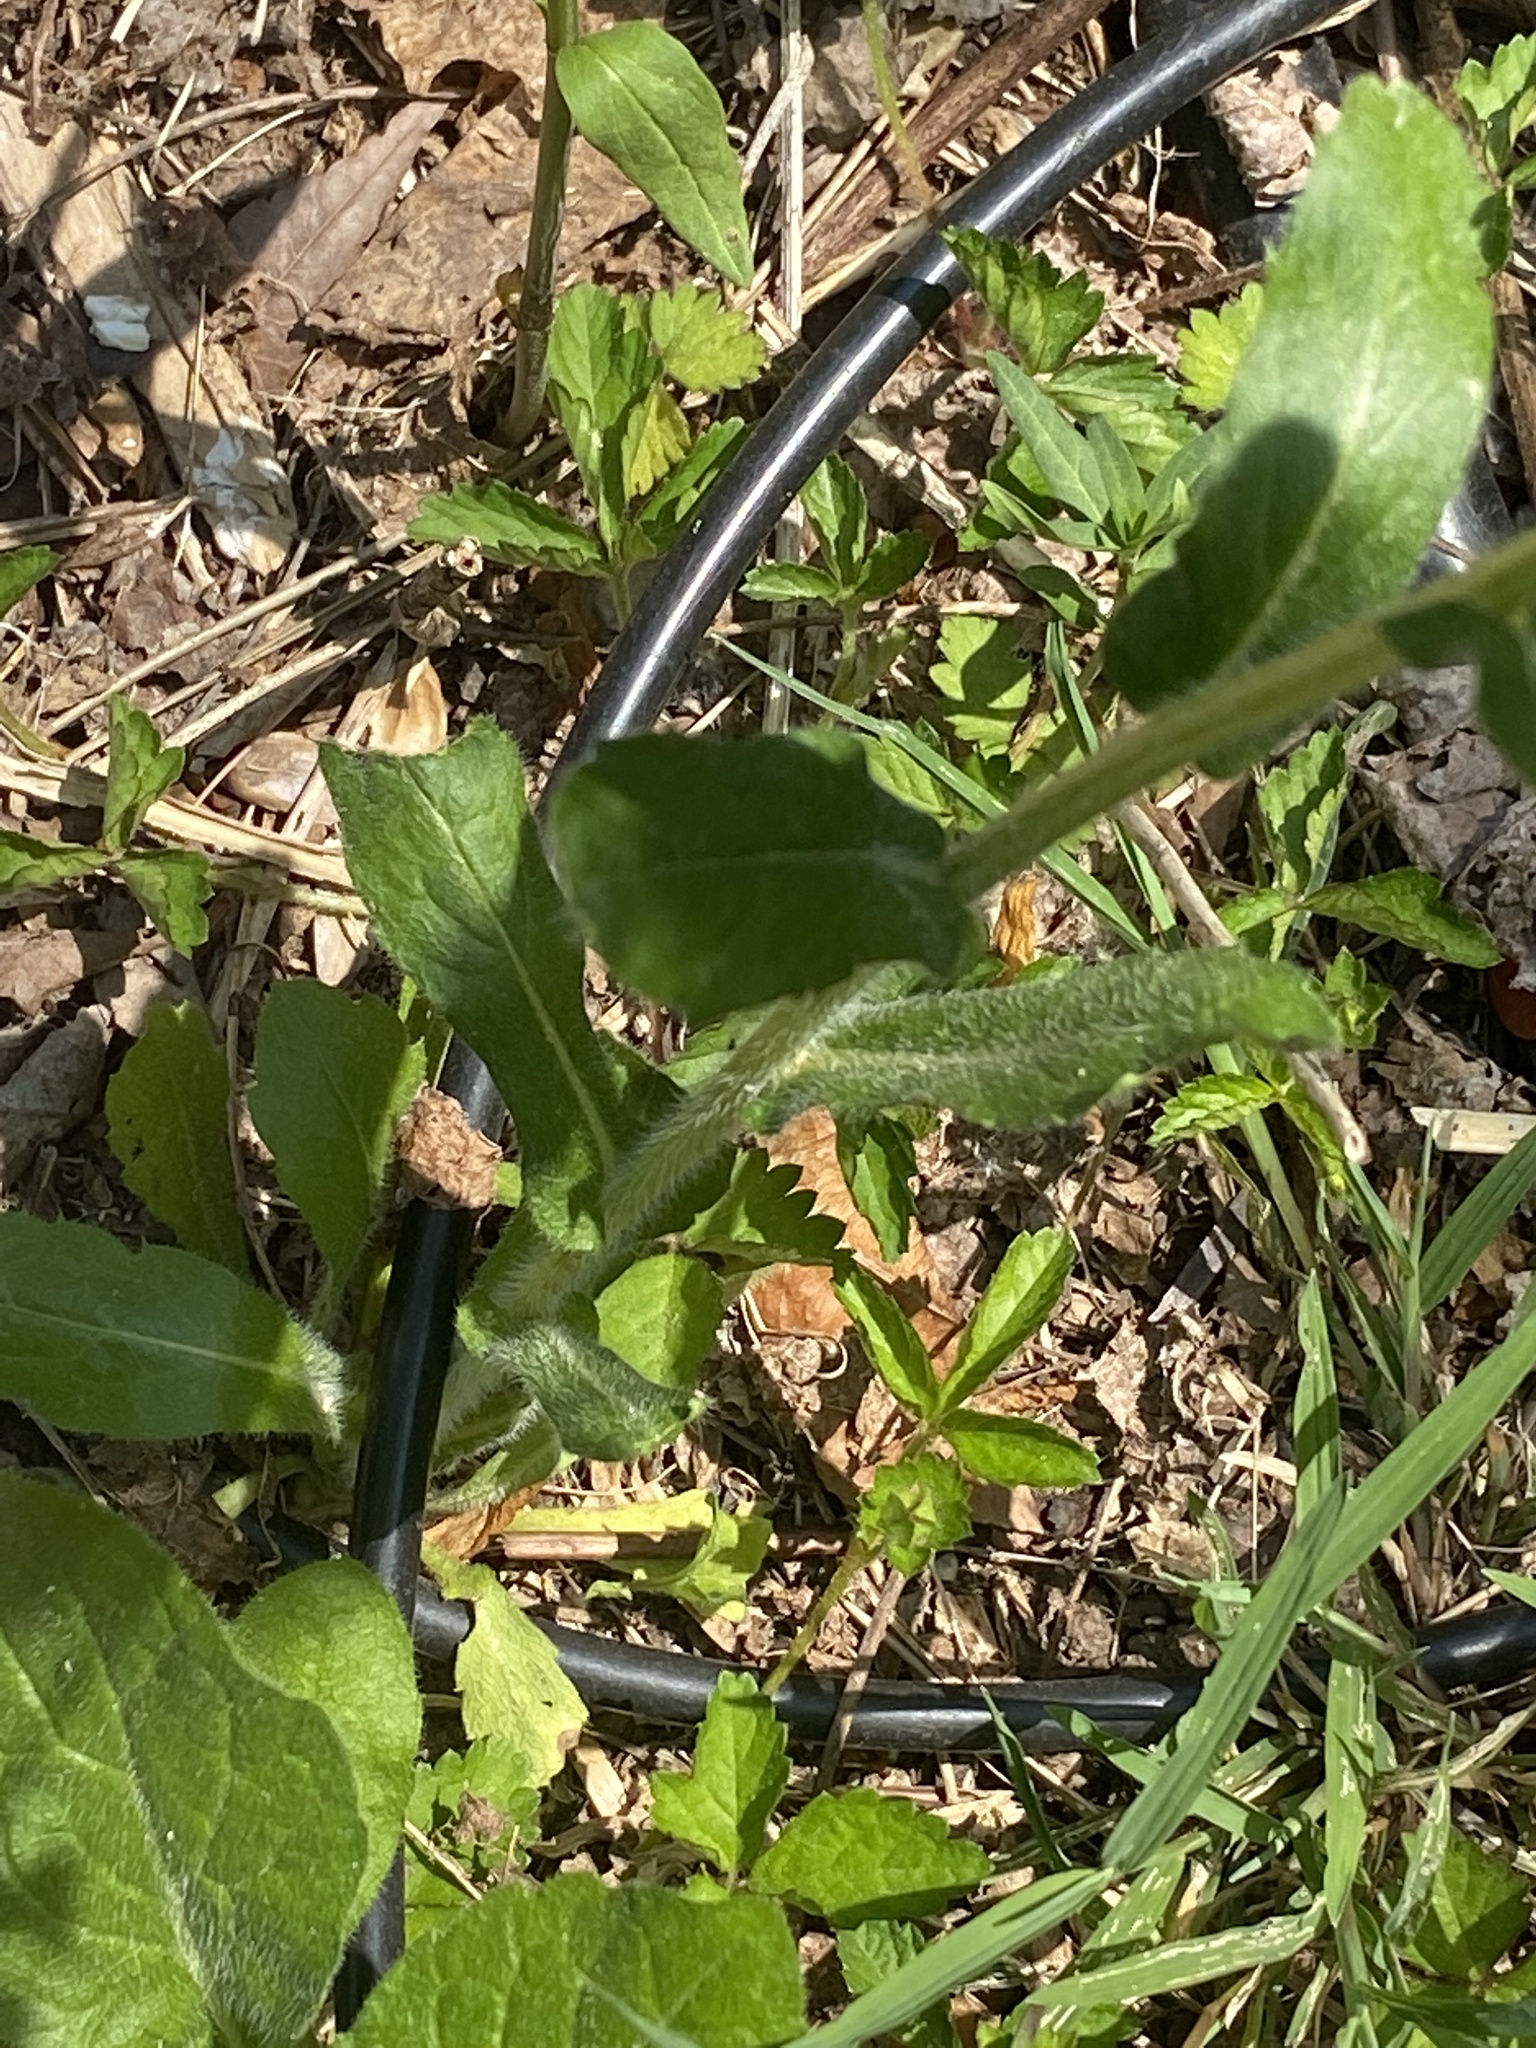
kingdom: Plantae
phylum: Tracheophyta
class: Magnoliopsida
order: Asterales
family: Asteraceae
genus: Erigeron
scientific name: Erigeron philadelphicus
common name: Robin's-plantain
